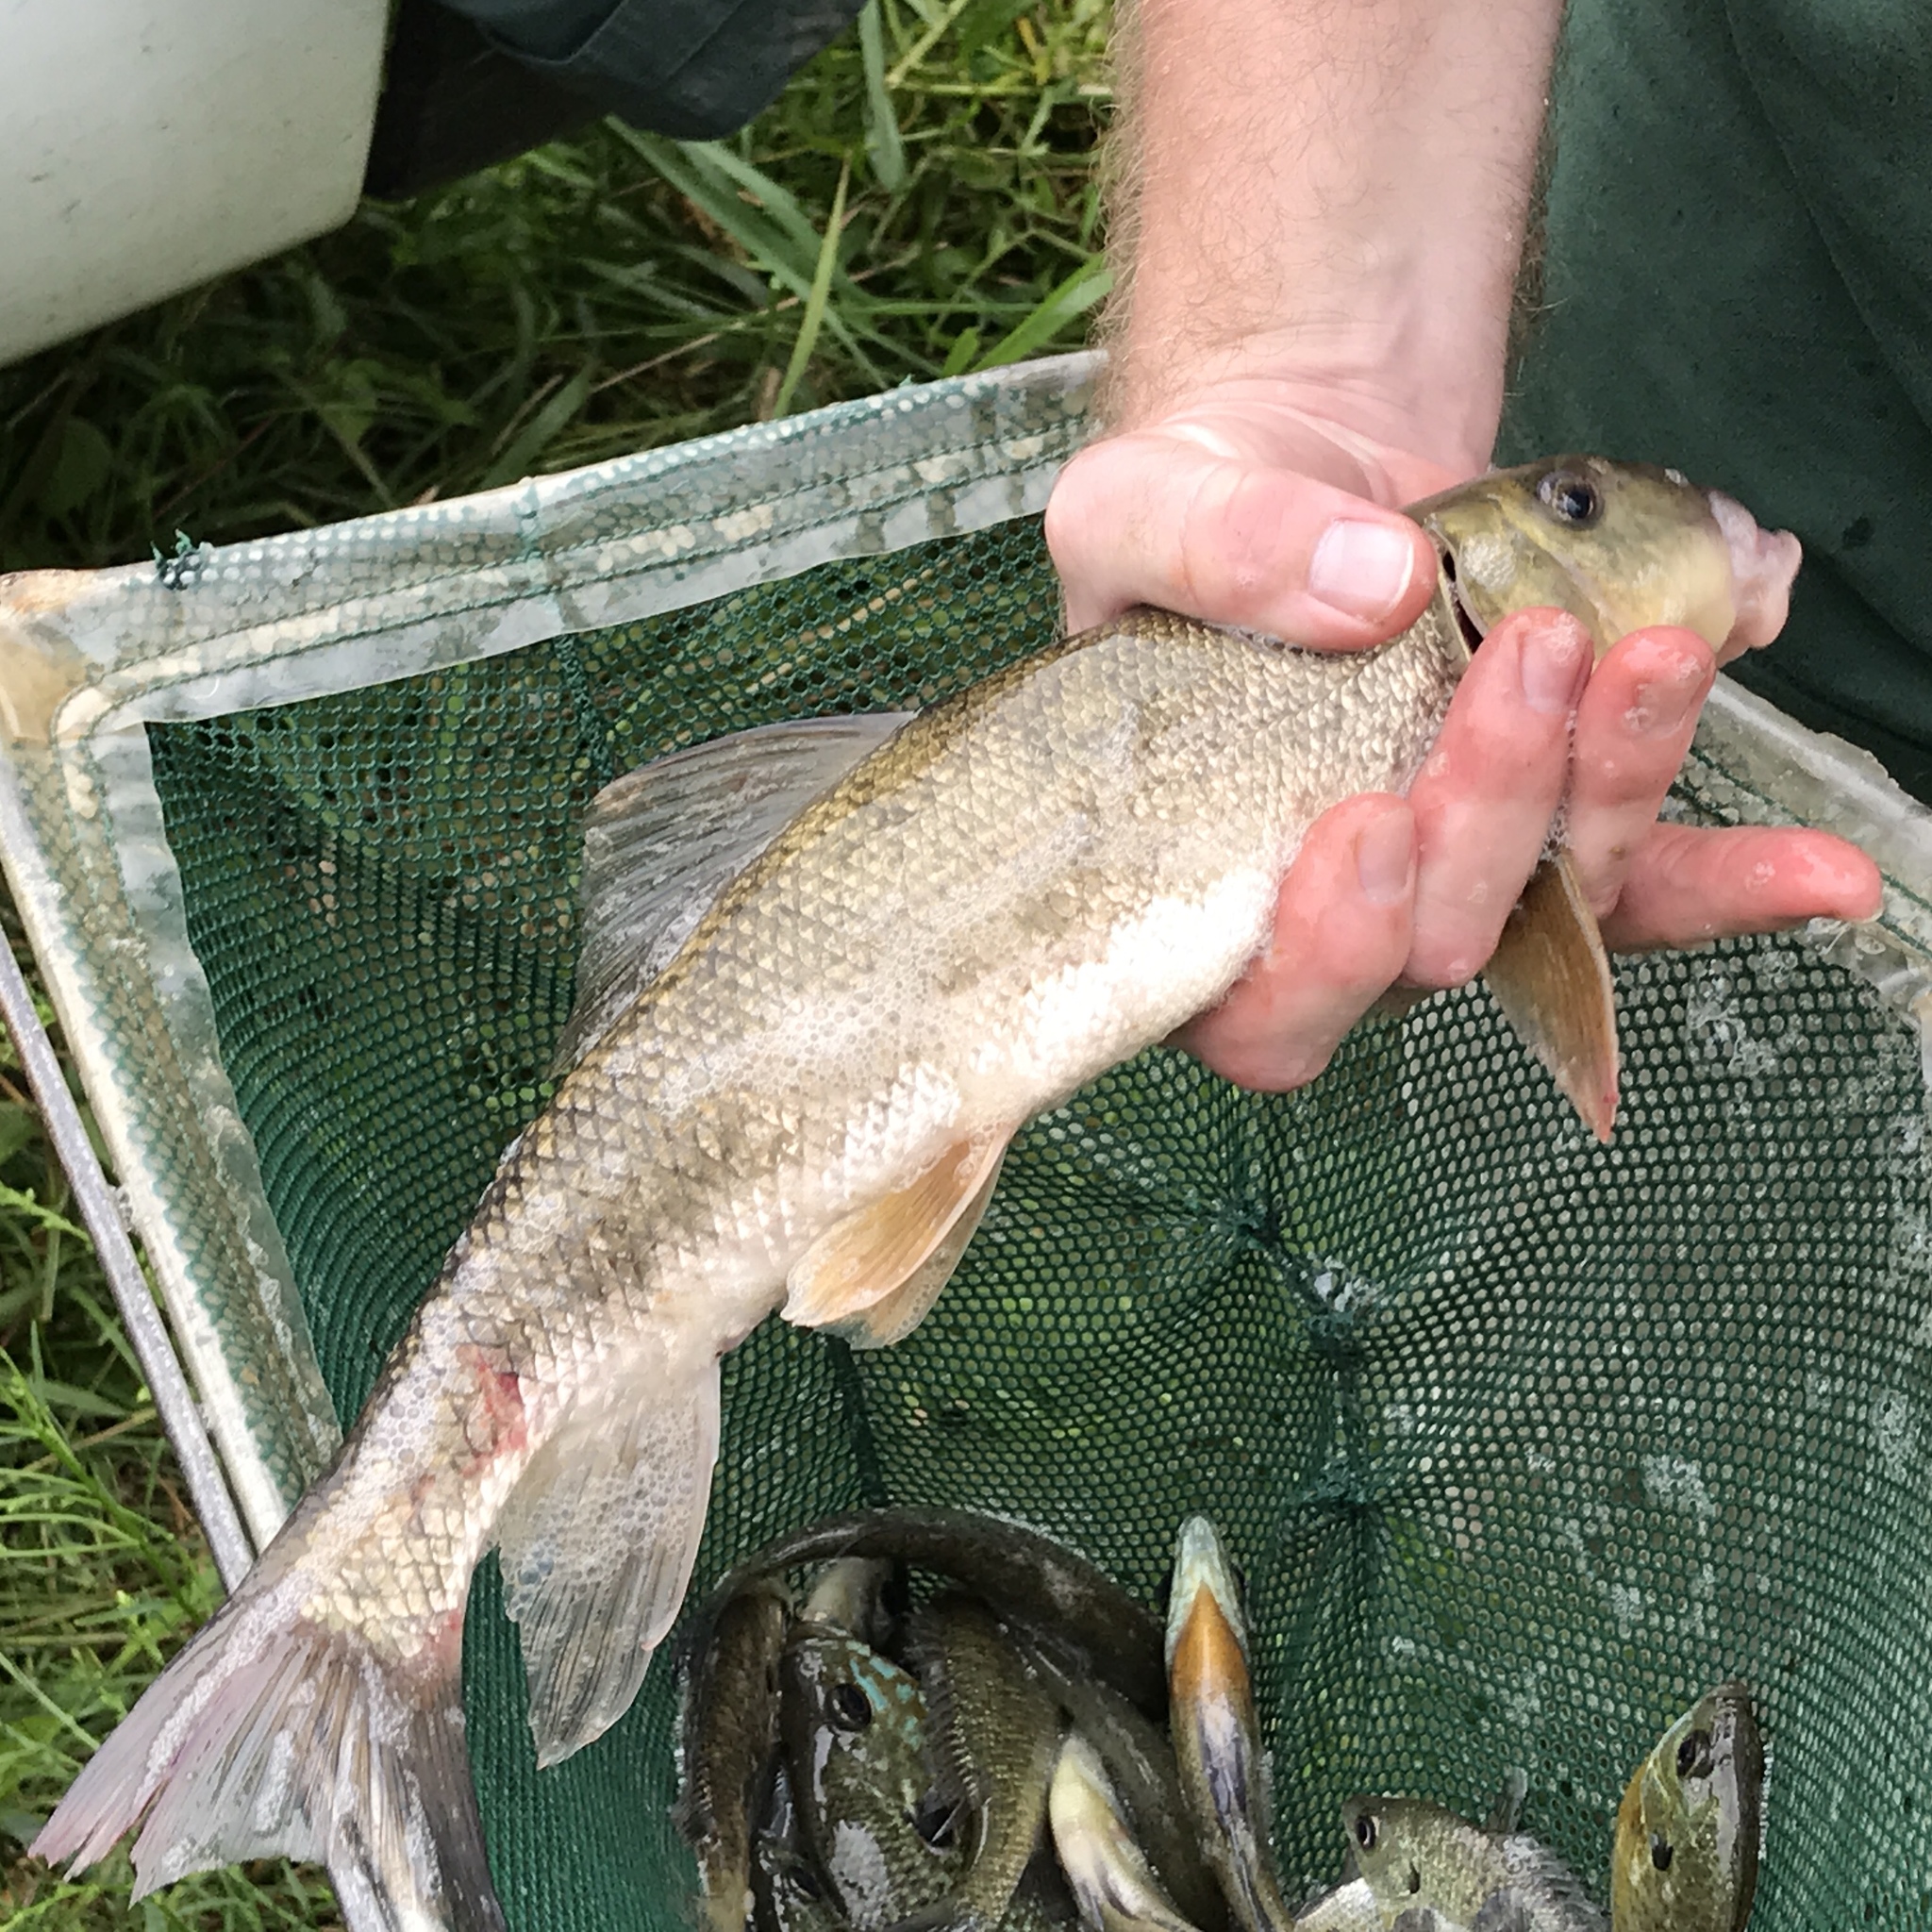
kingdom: Animalia
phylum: Chordata
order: Cypriniformes
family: Catostomidae
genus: Catostomus
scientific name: Catostomus commersonii
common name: White sucker
